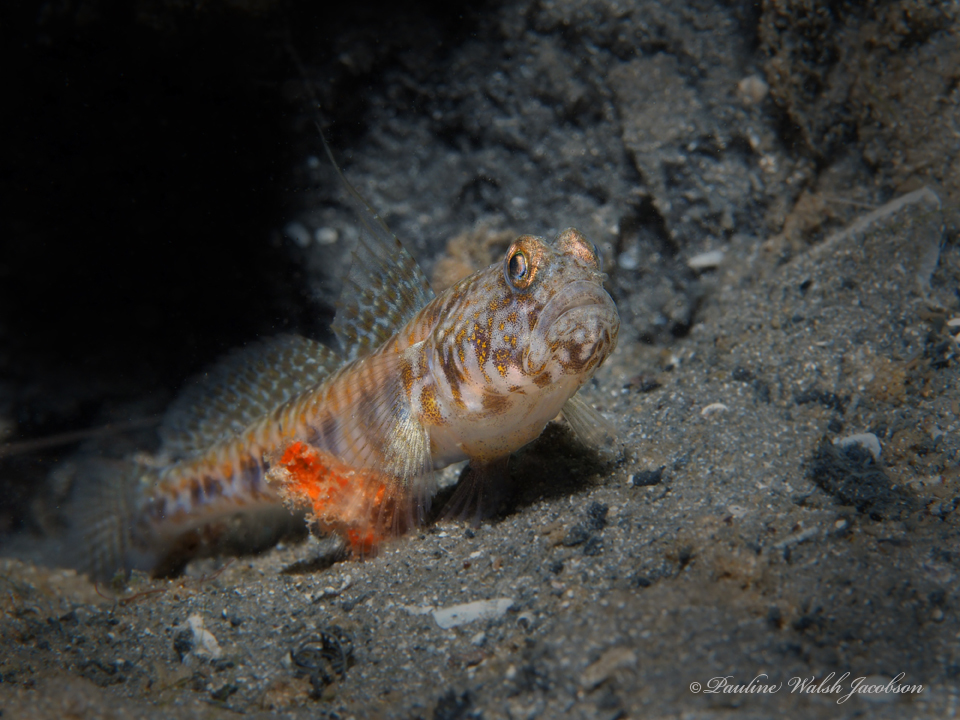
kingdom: Animalia
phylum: Chordata
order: Perciformes
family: Gobiidae
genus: Nes
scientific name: Nes longus
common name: Orangespotted goby
